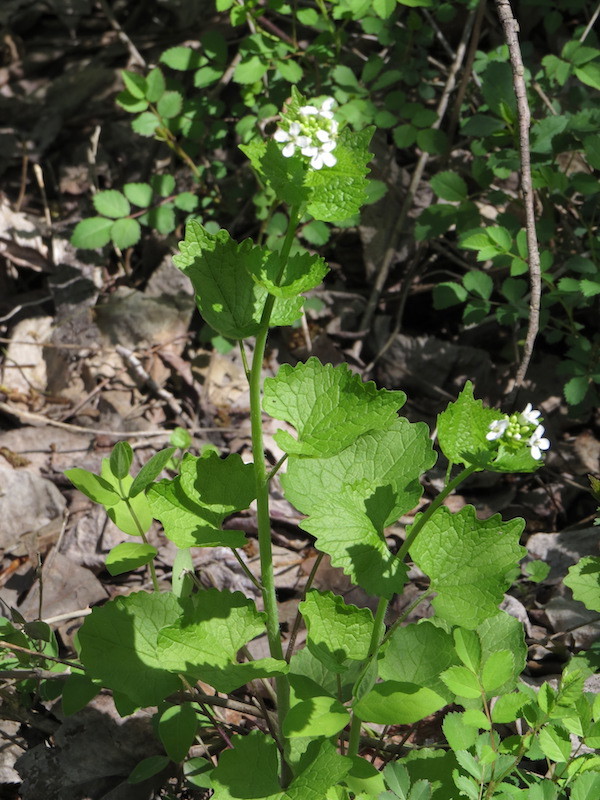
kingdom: Plantae
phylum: Tracheophyta
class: Magnoliopsida
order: Brassicales
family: Brassicaceae
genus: Alliaria
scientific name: Alliaria petiolata
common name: Garlic mustard
